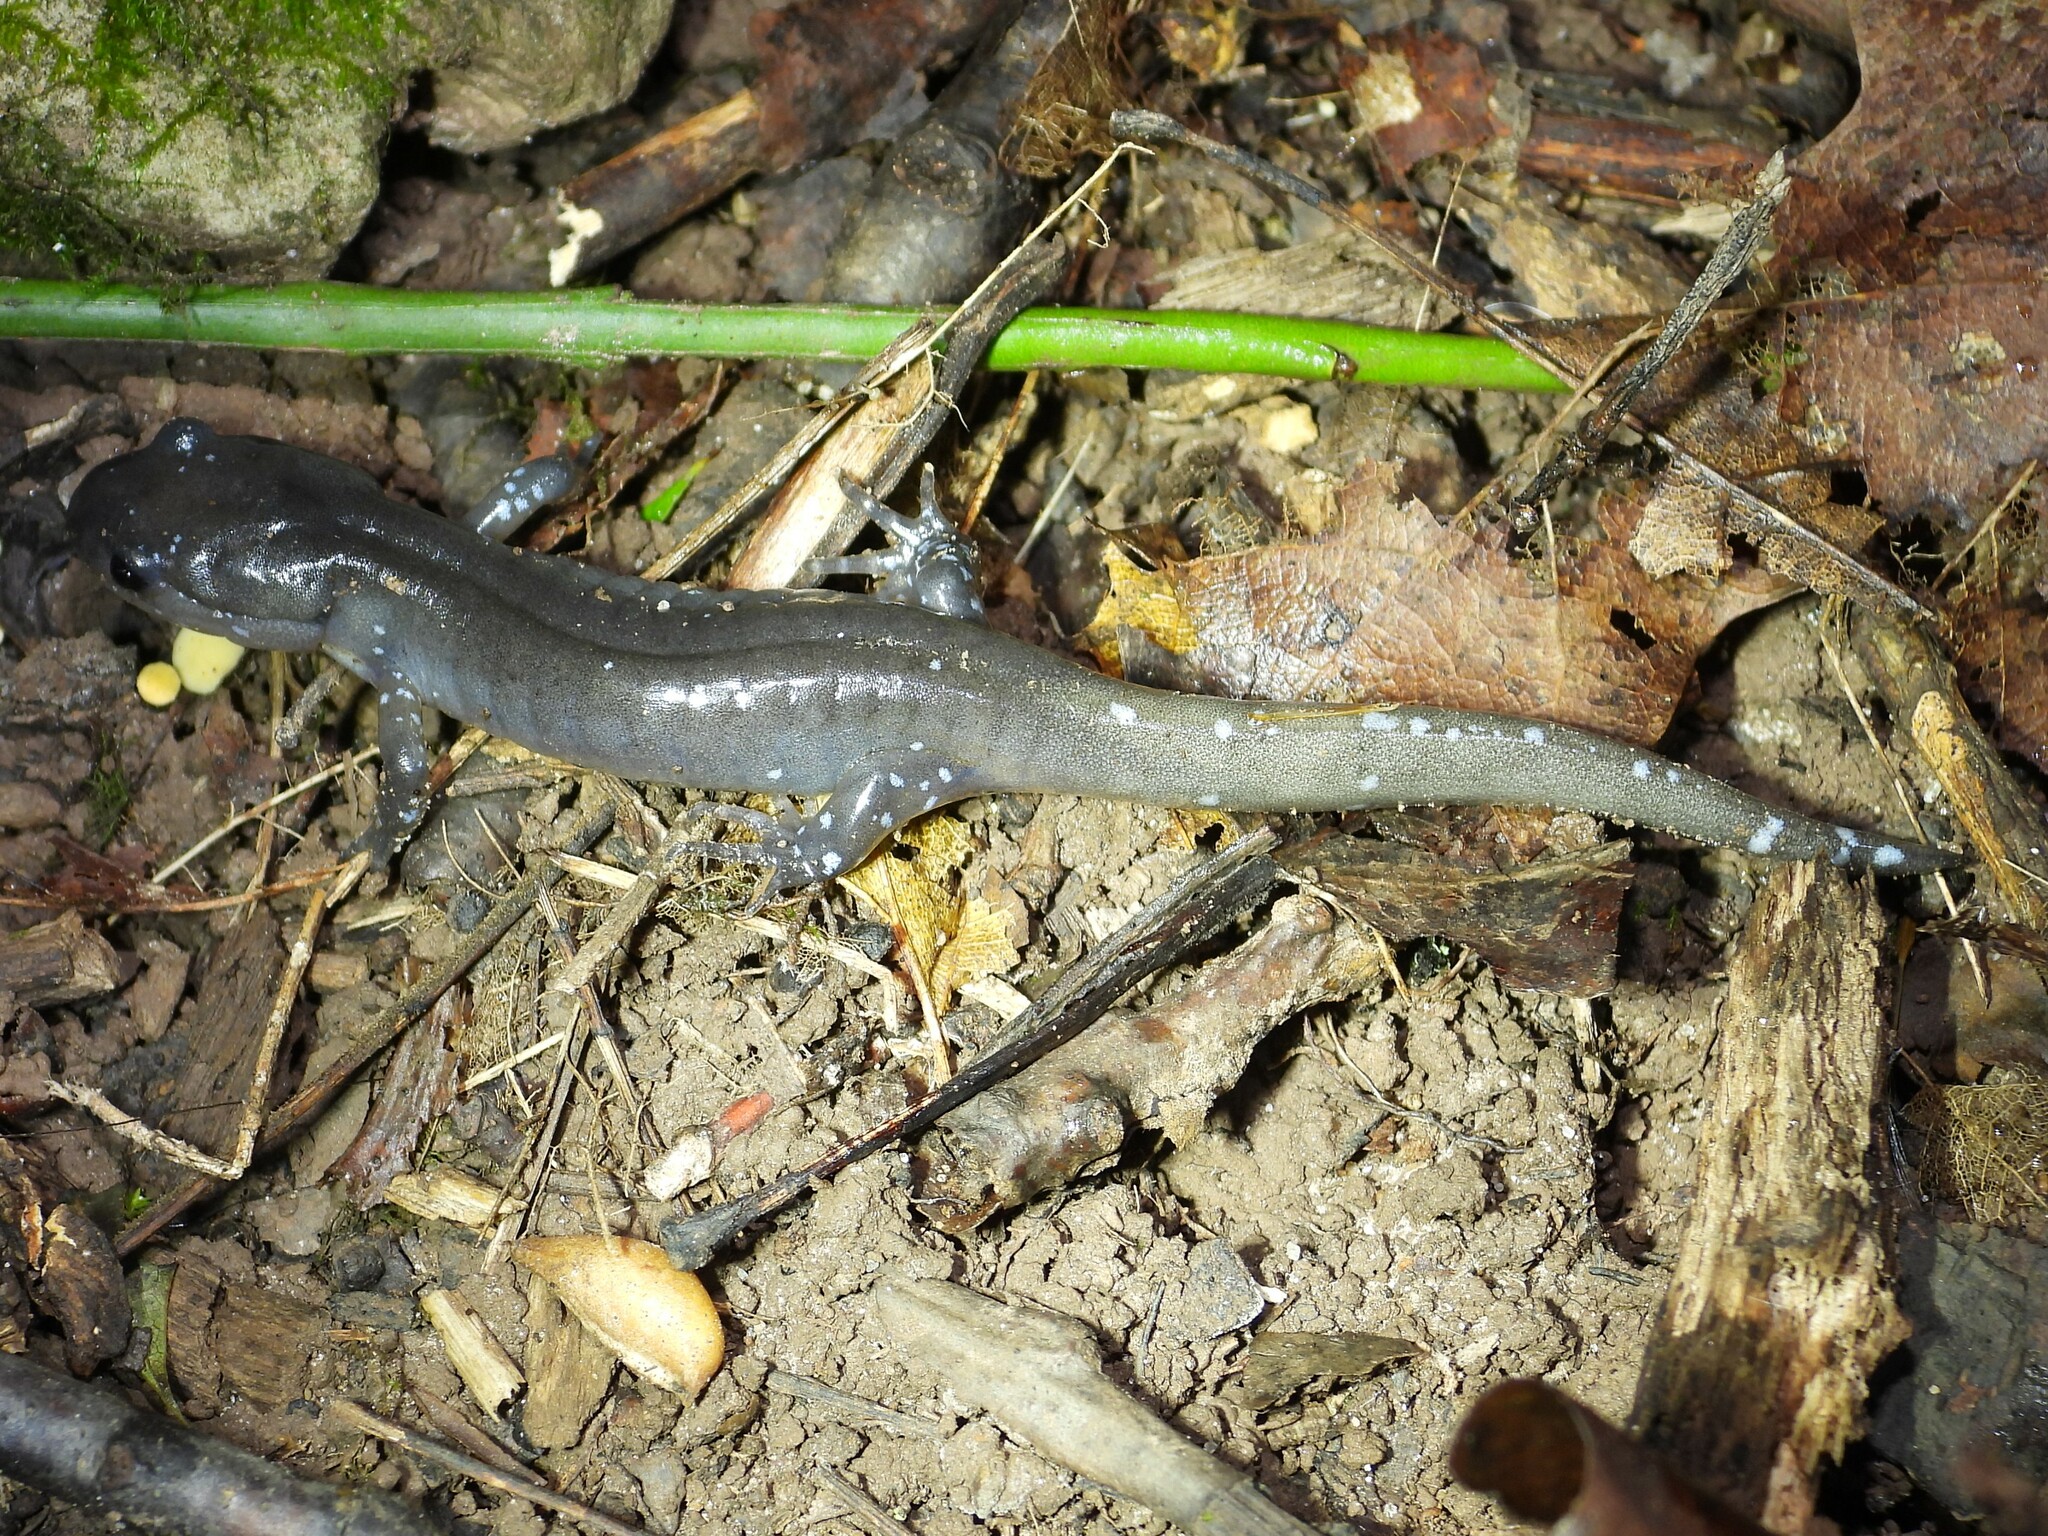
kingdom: Animalia
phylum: Chordata
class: Amphibia
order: Caudata
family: Ambystomatidae
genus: Ambystoma
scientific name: Ambystoma jeffersonianum
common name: Jefferson salamander
